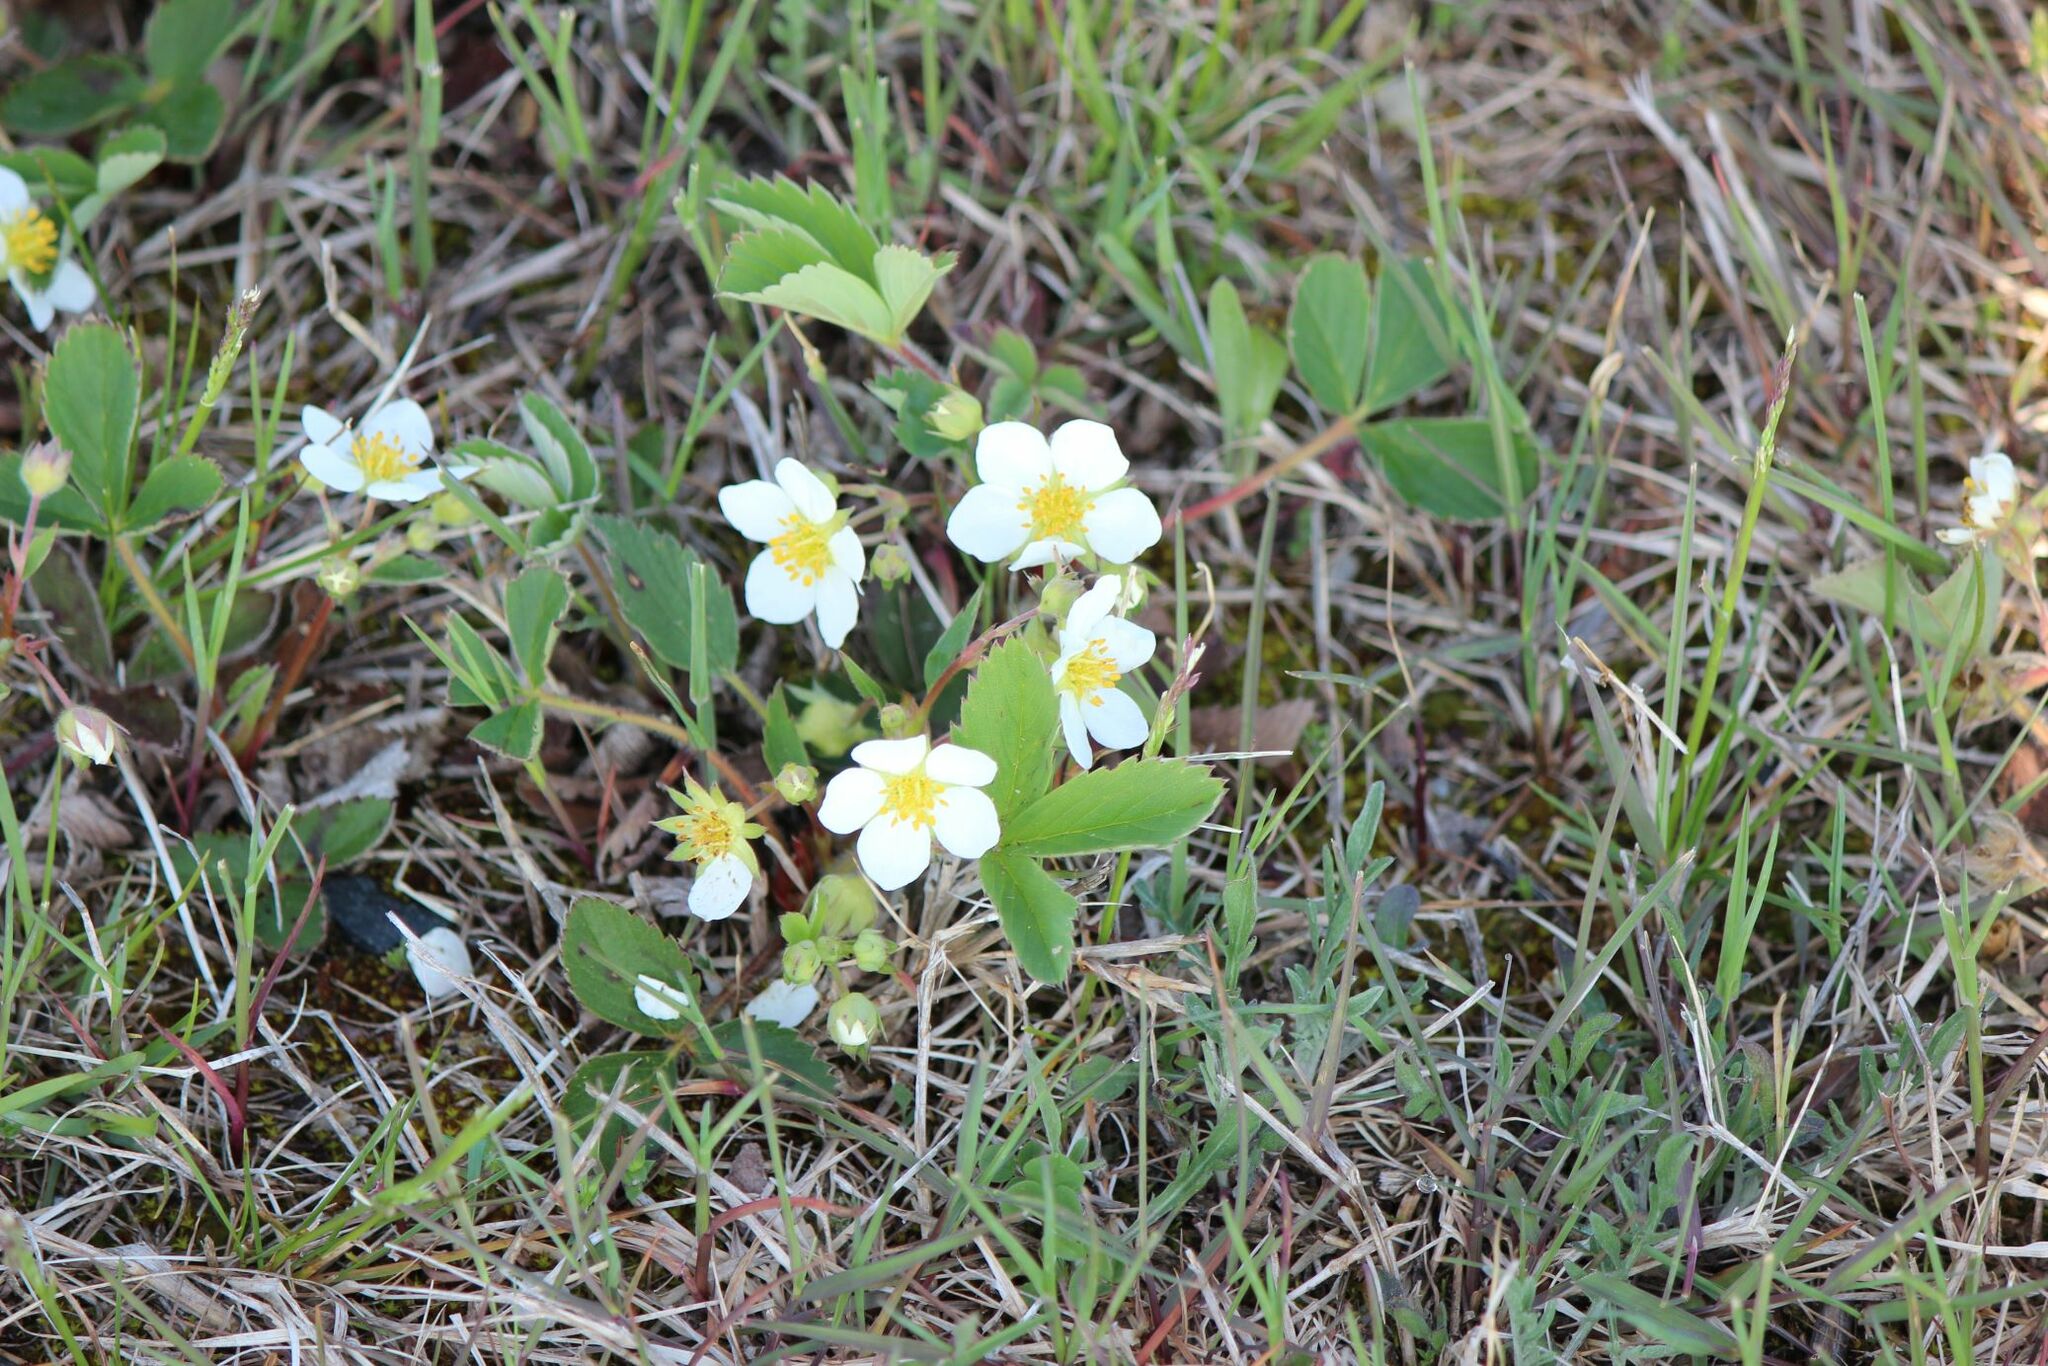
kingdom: Plantae
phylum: Tracheophyta
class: Magnoliopsida
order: Rosales
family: Rosaceae
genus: Fragaria
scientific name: Fragaria virginiana
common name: Thickleaved wild strawberry
